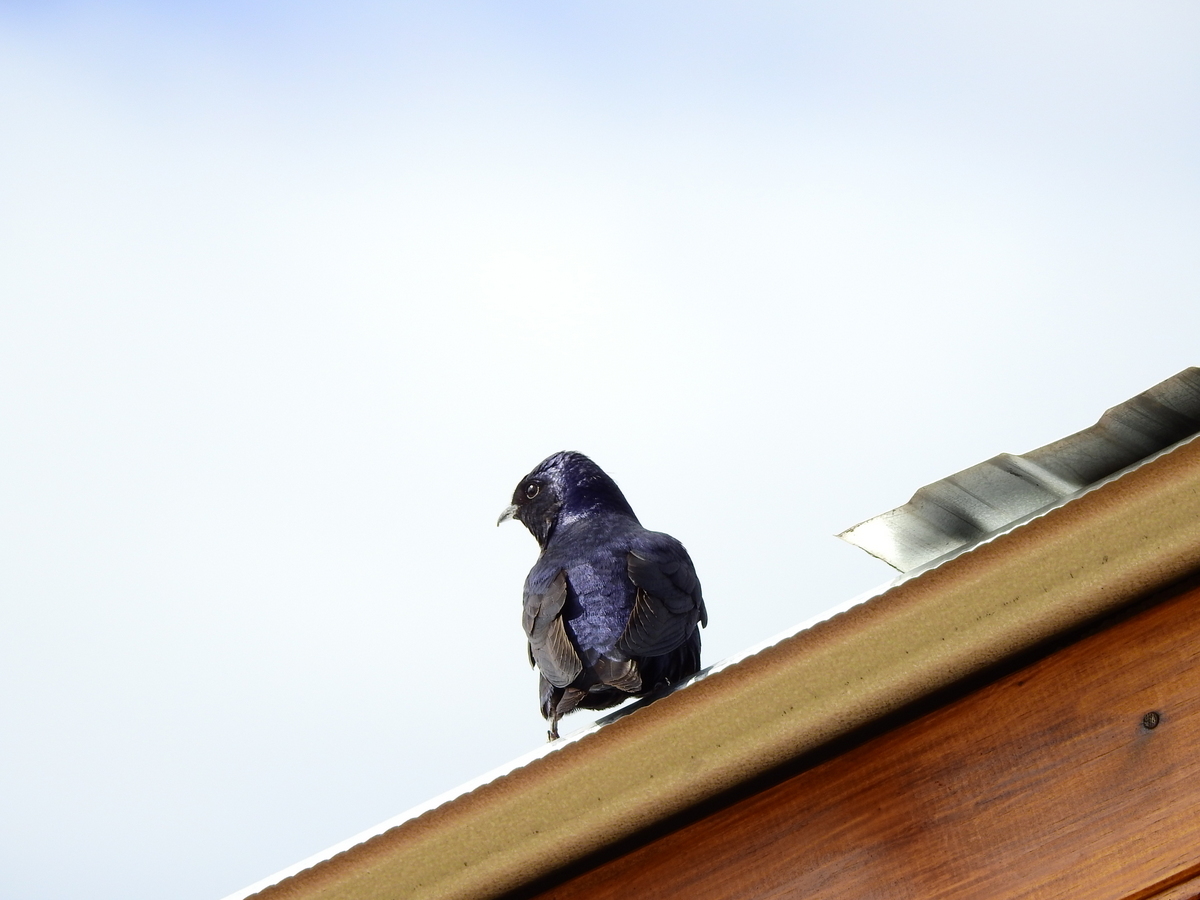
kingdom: Animalia
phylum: Chordata
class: Aves
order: Passeriformes
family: Hirundinidae
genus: Progne
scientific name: Progne elegans
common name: Southern martin
